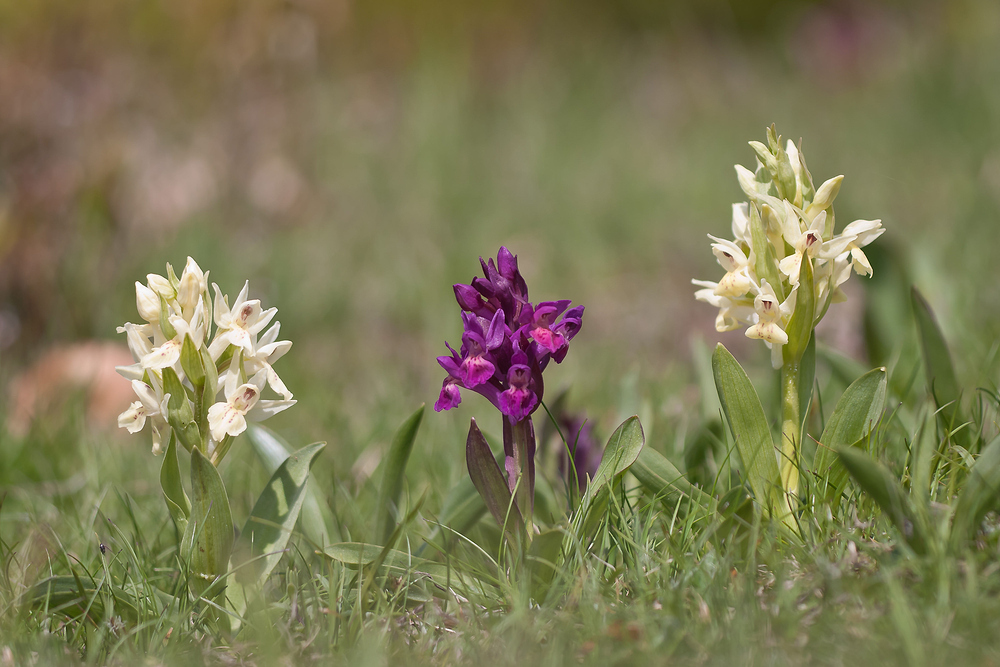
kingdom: Plantae
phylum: Tracheophyta
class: Liliopsida
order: Asparagales
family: Orchidaceae
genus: Dactylorhiza
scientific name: Dactylorhiza sambucina
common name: Elder-flowered orchid
